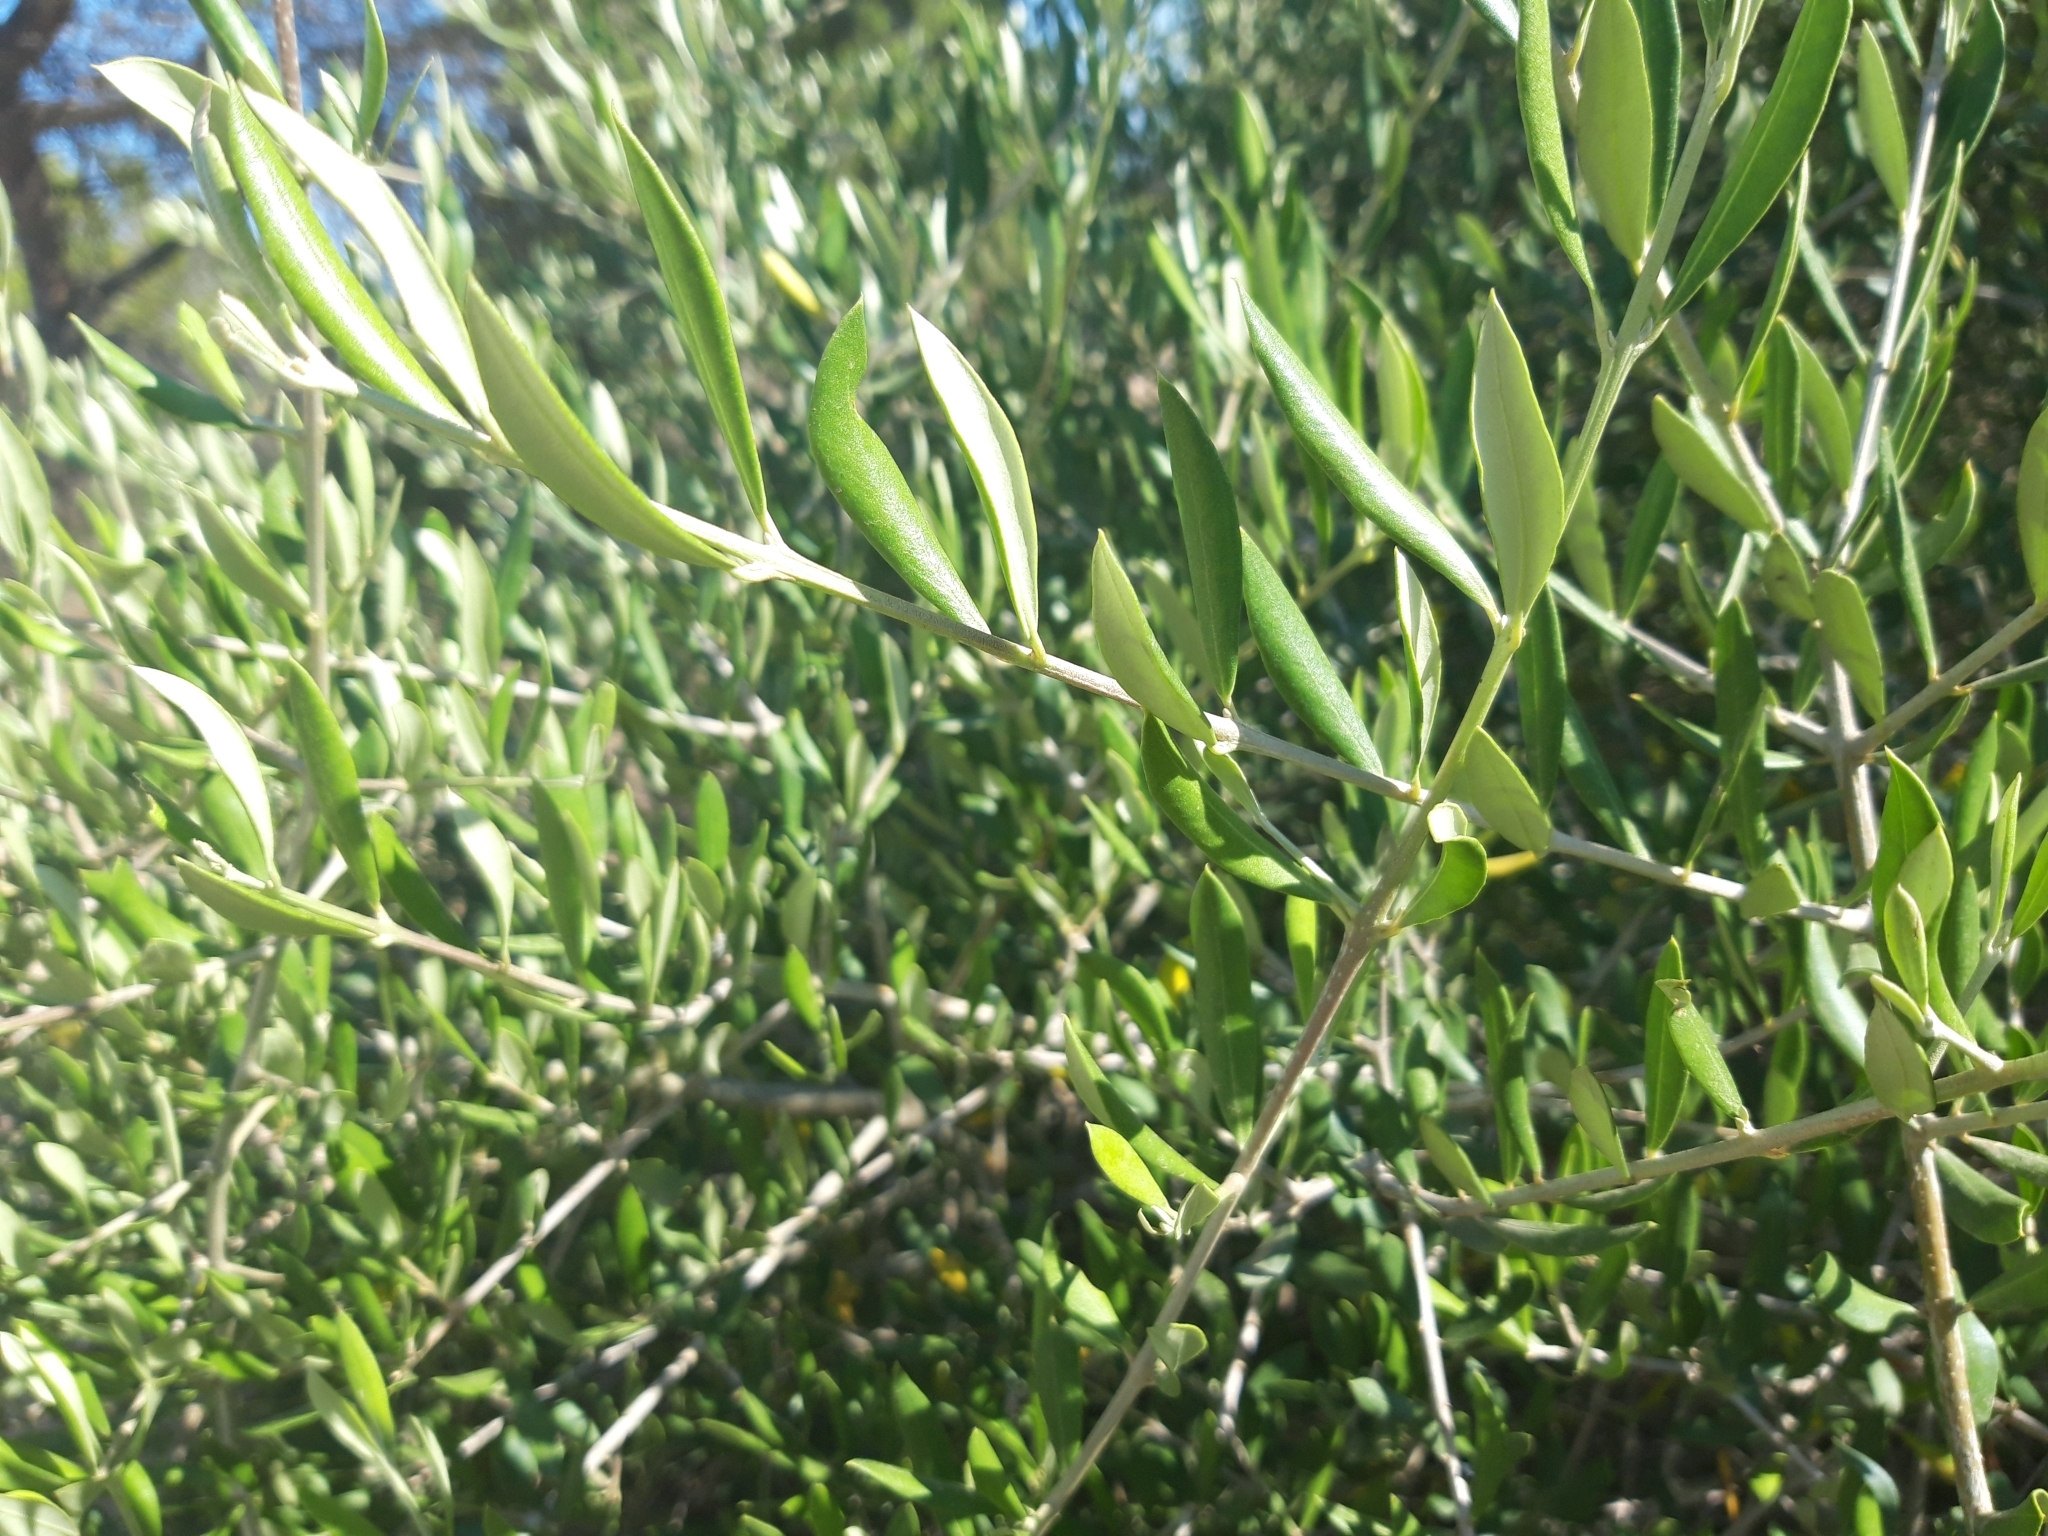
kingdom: Plantae
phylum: Tracheophyta
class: Magnoliopsida
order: Lamiales
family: Oleaceae
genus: Olea
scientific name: Olea europaea
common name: Olive
